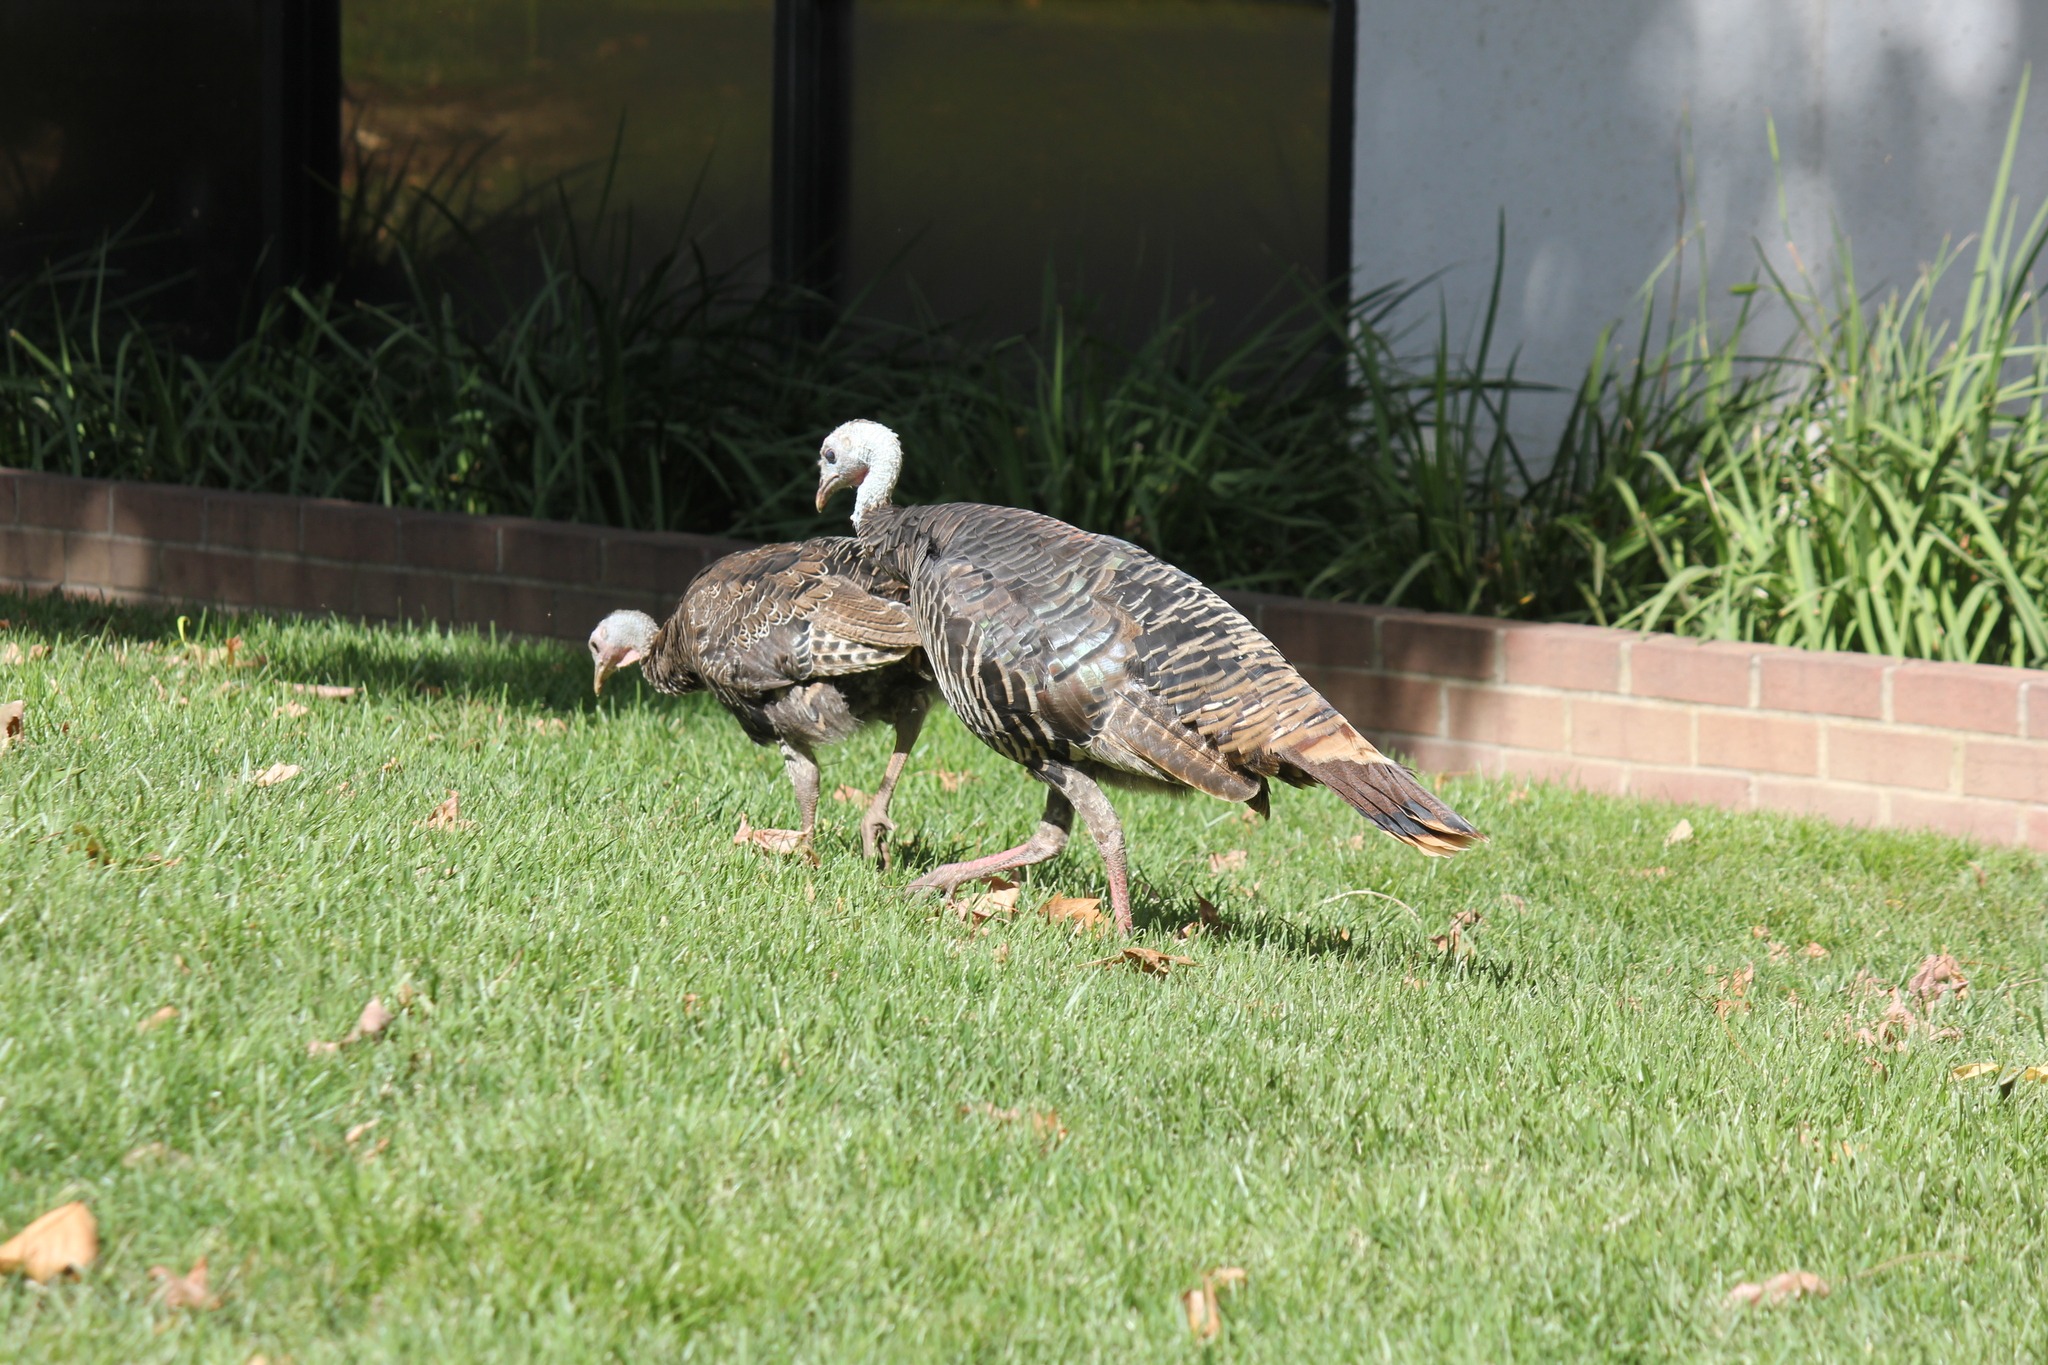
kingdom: Animalia
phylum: Chordata
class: Aves
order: Galliformes
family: Phasianidae
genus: Meleagris
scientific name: Meleagris gallopavo
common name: Wild turkey
